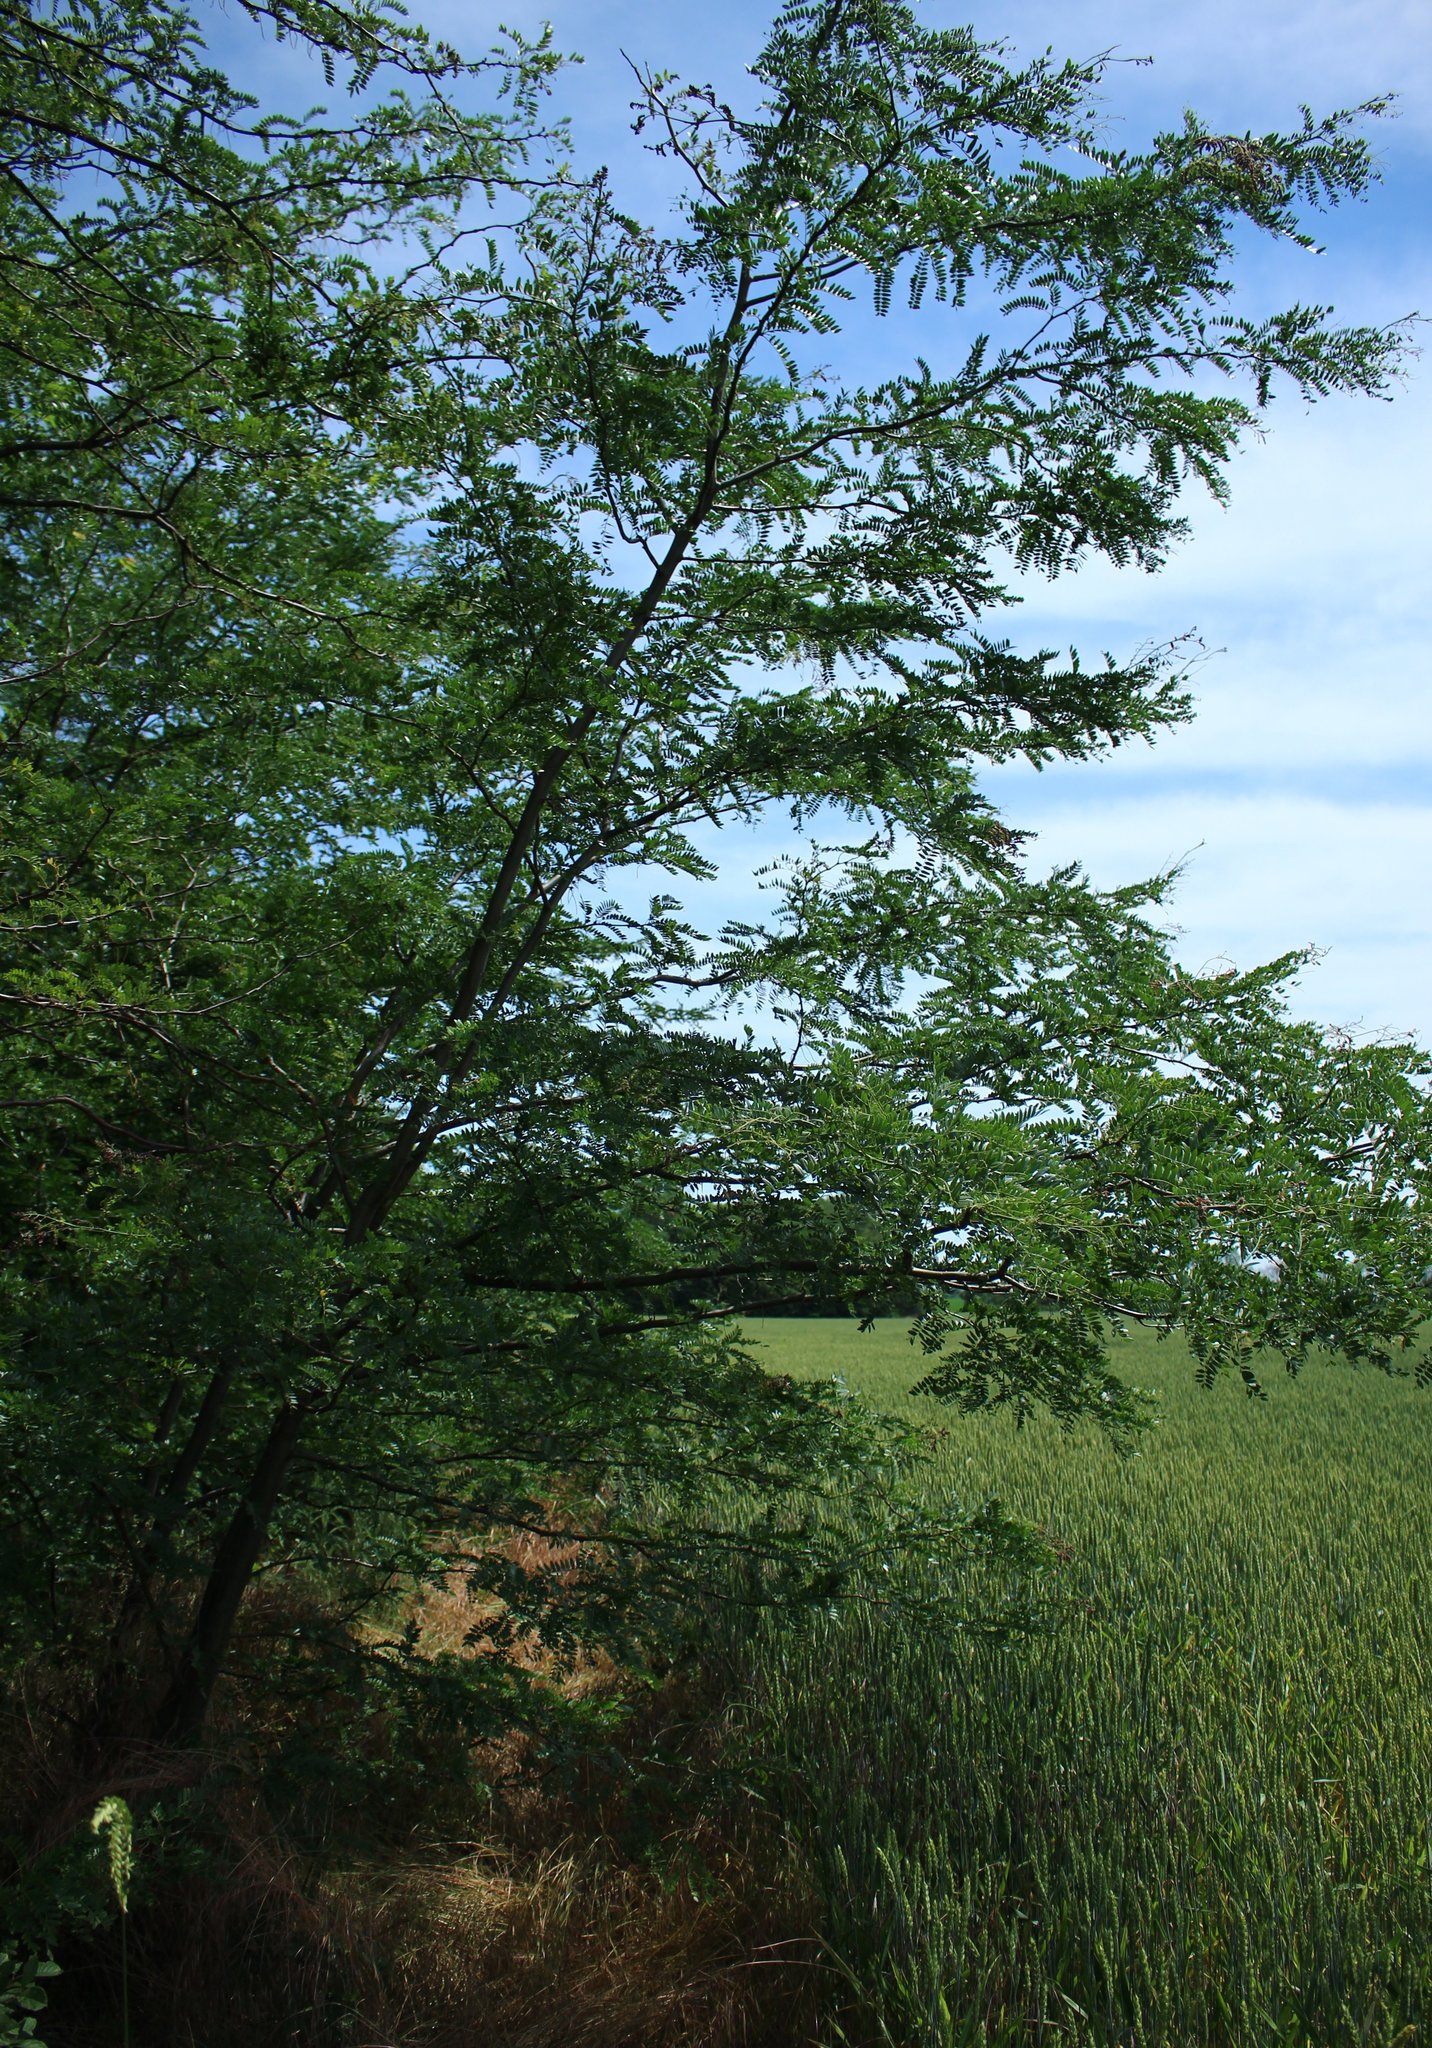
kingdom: Plantae
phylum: Tracheophyta
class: Magnoliopsida
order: Fabales
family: Fabaceae
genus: Gleditsia
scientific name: Gleditsia triacanthos
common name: Common honeylocust
